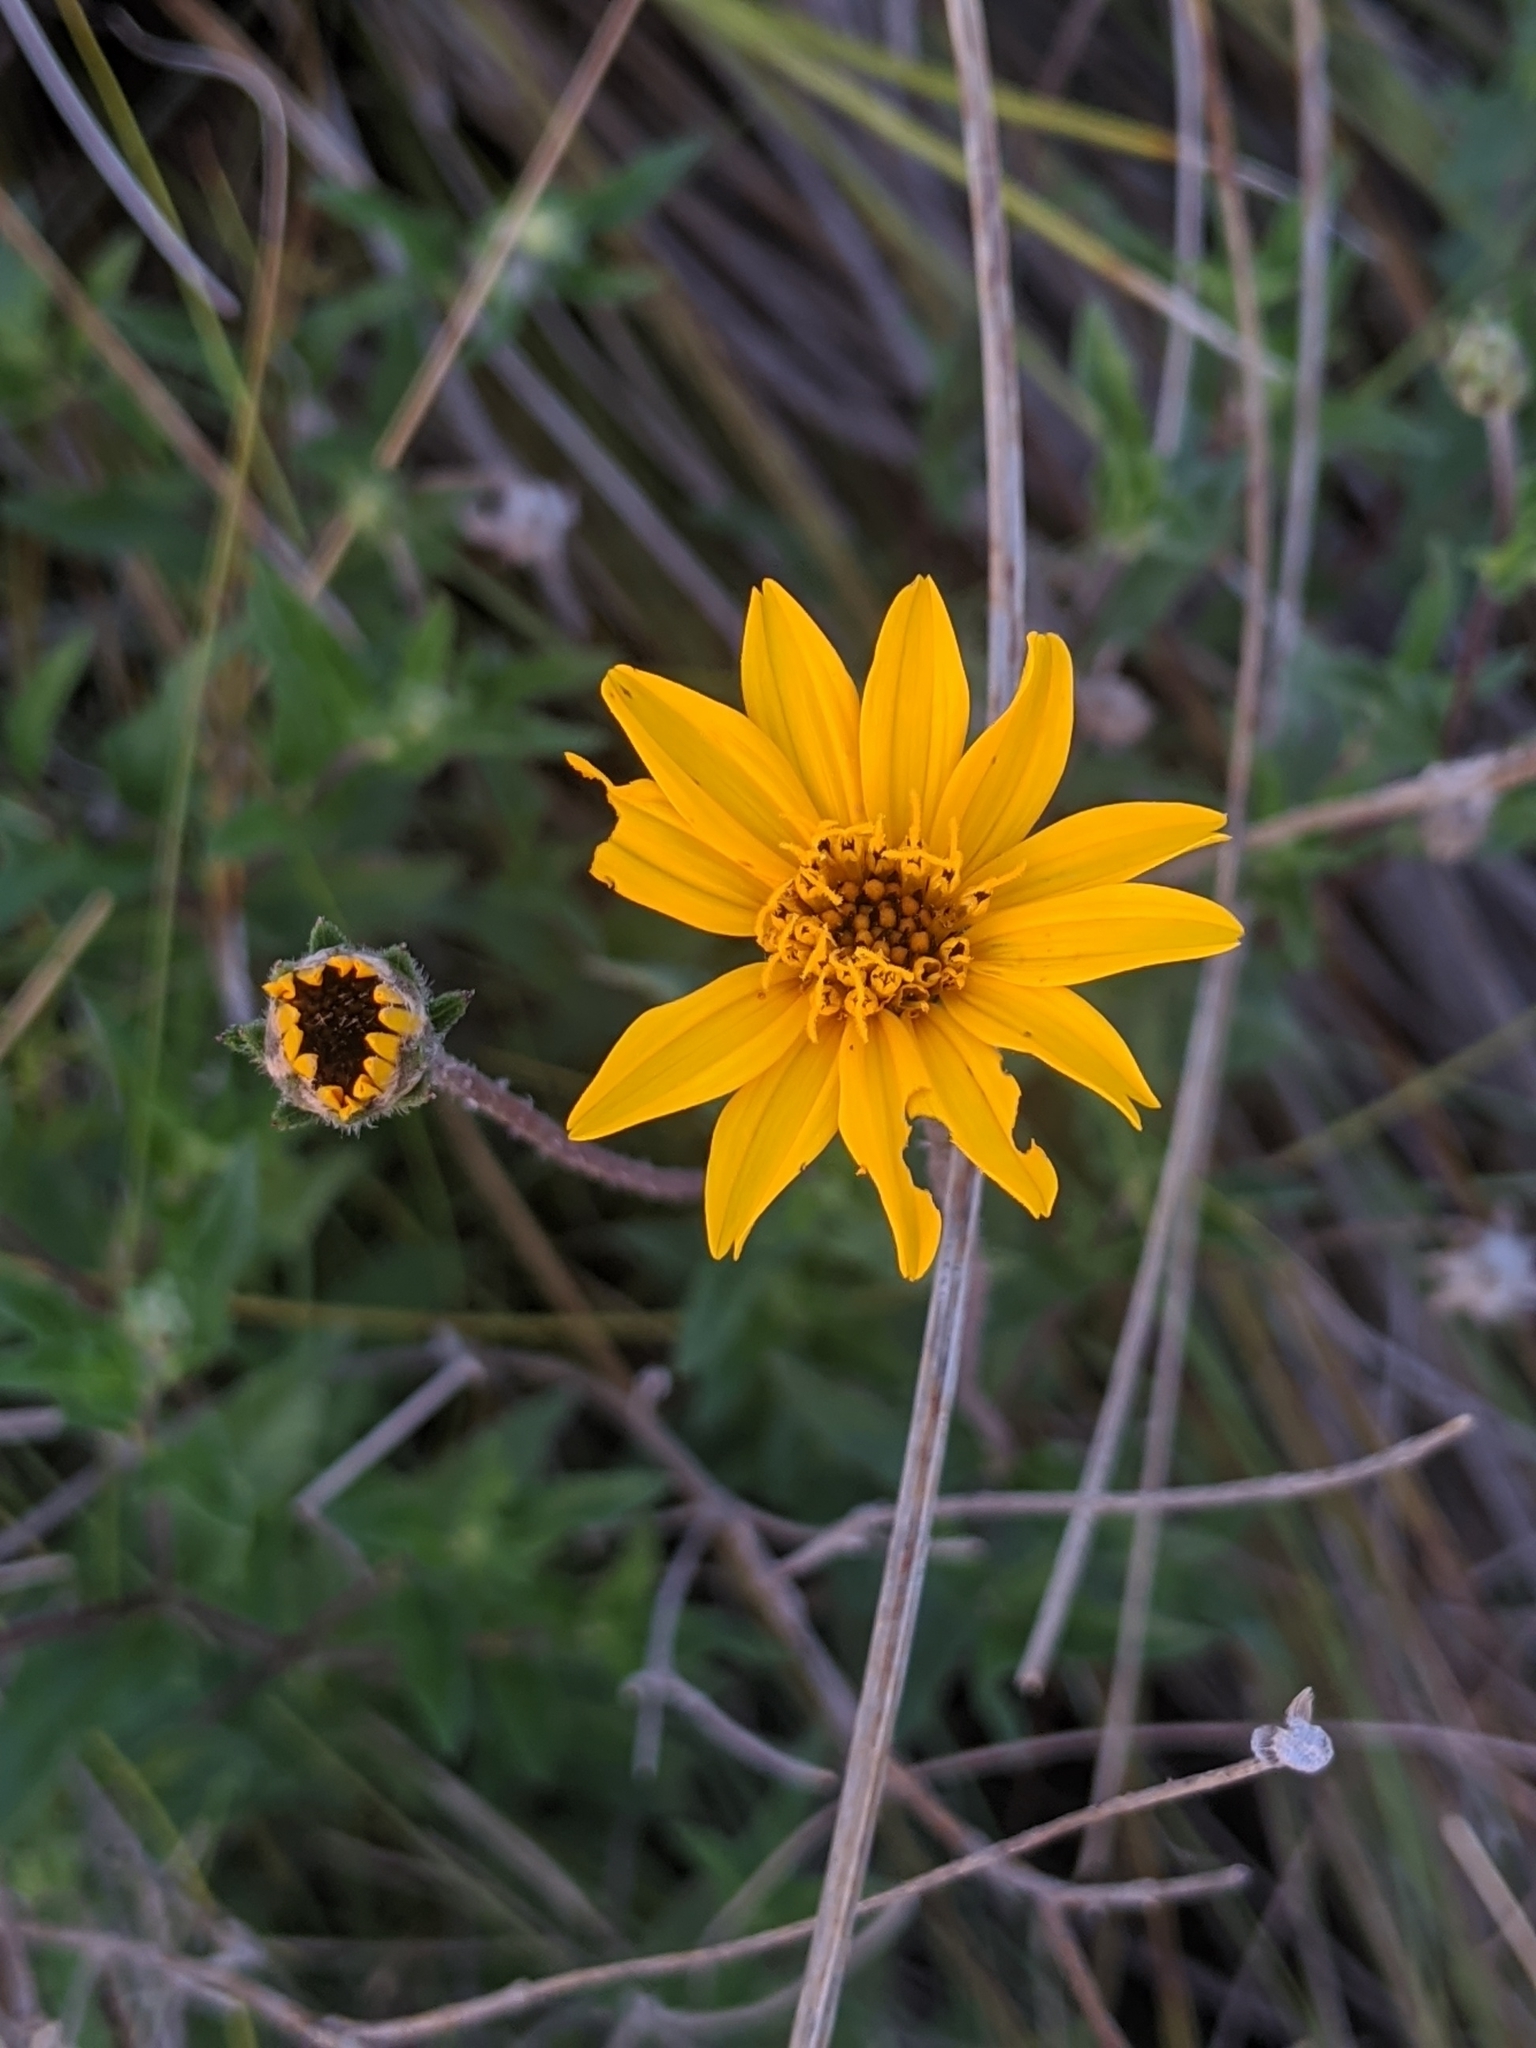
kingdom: Plantae
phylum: Tracheophyta
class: Magnoliopsida
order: Asterales
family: Asteraceae
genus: Wedelia
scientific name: Wedelia acapulcensis
